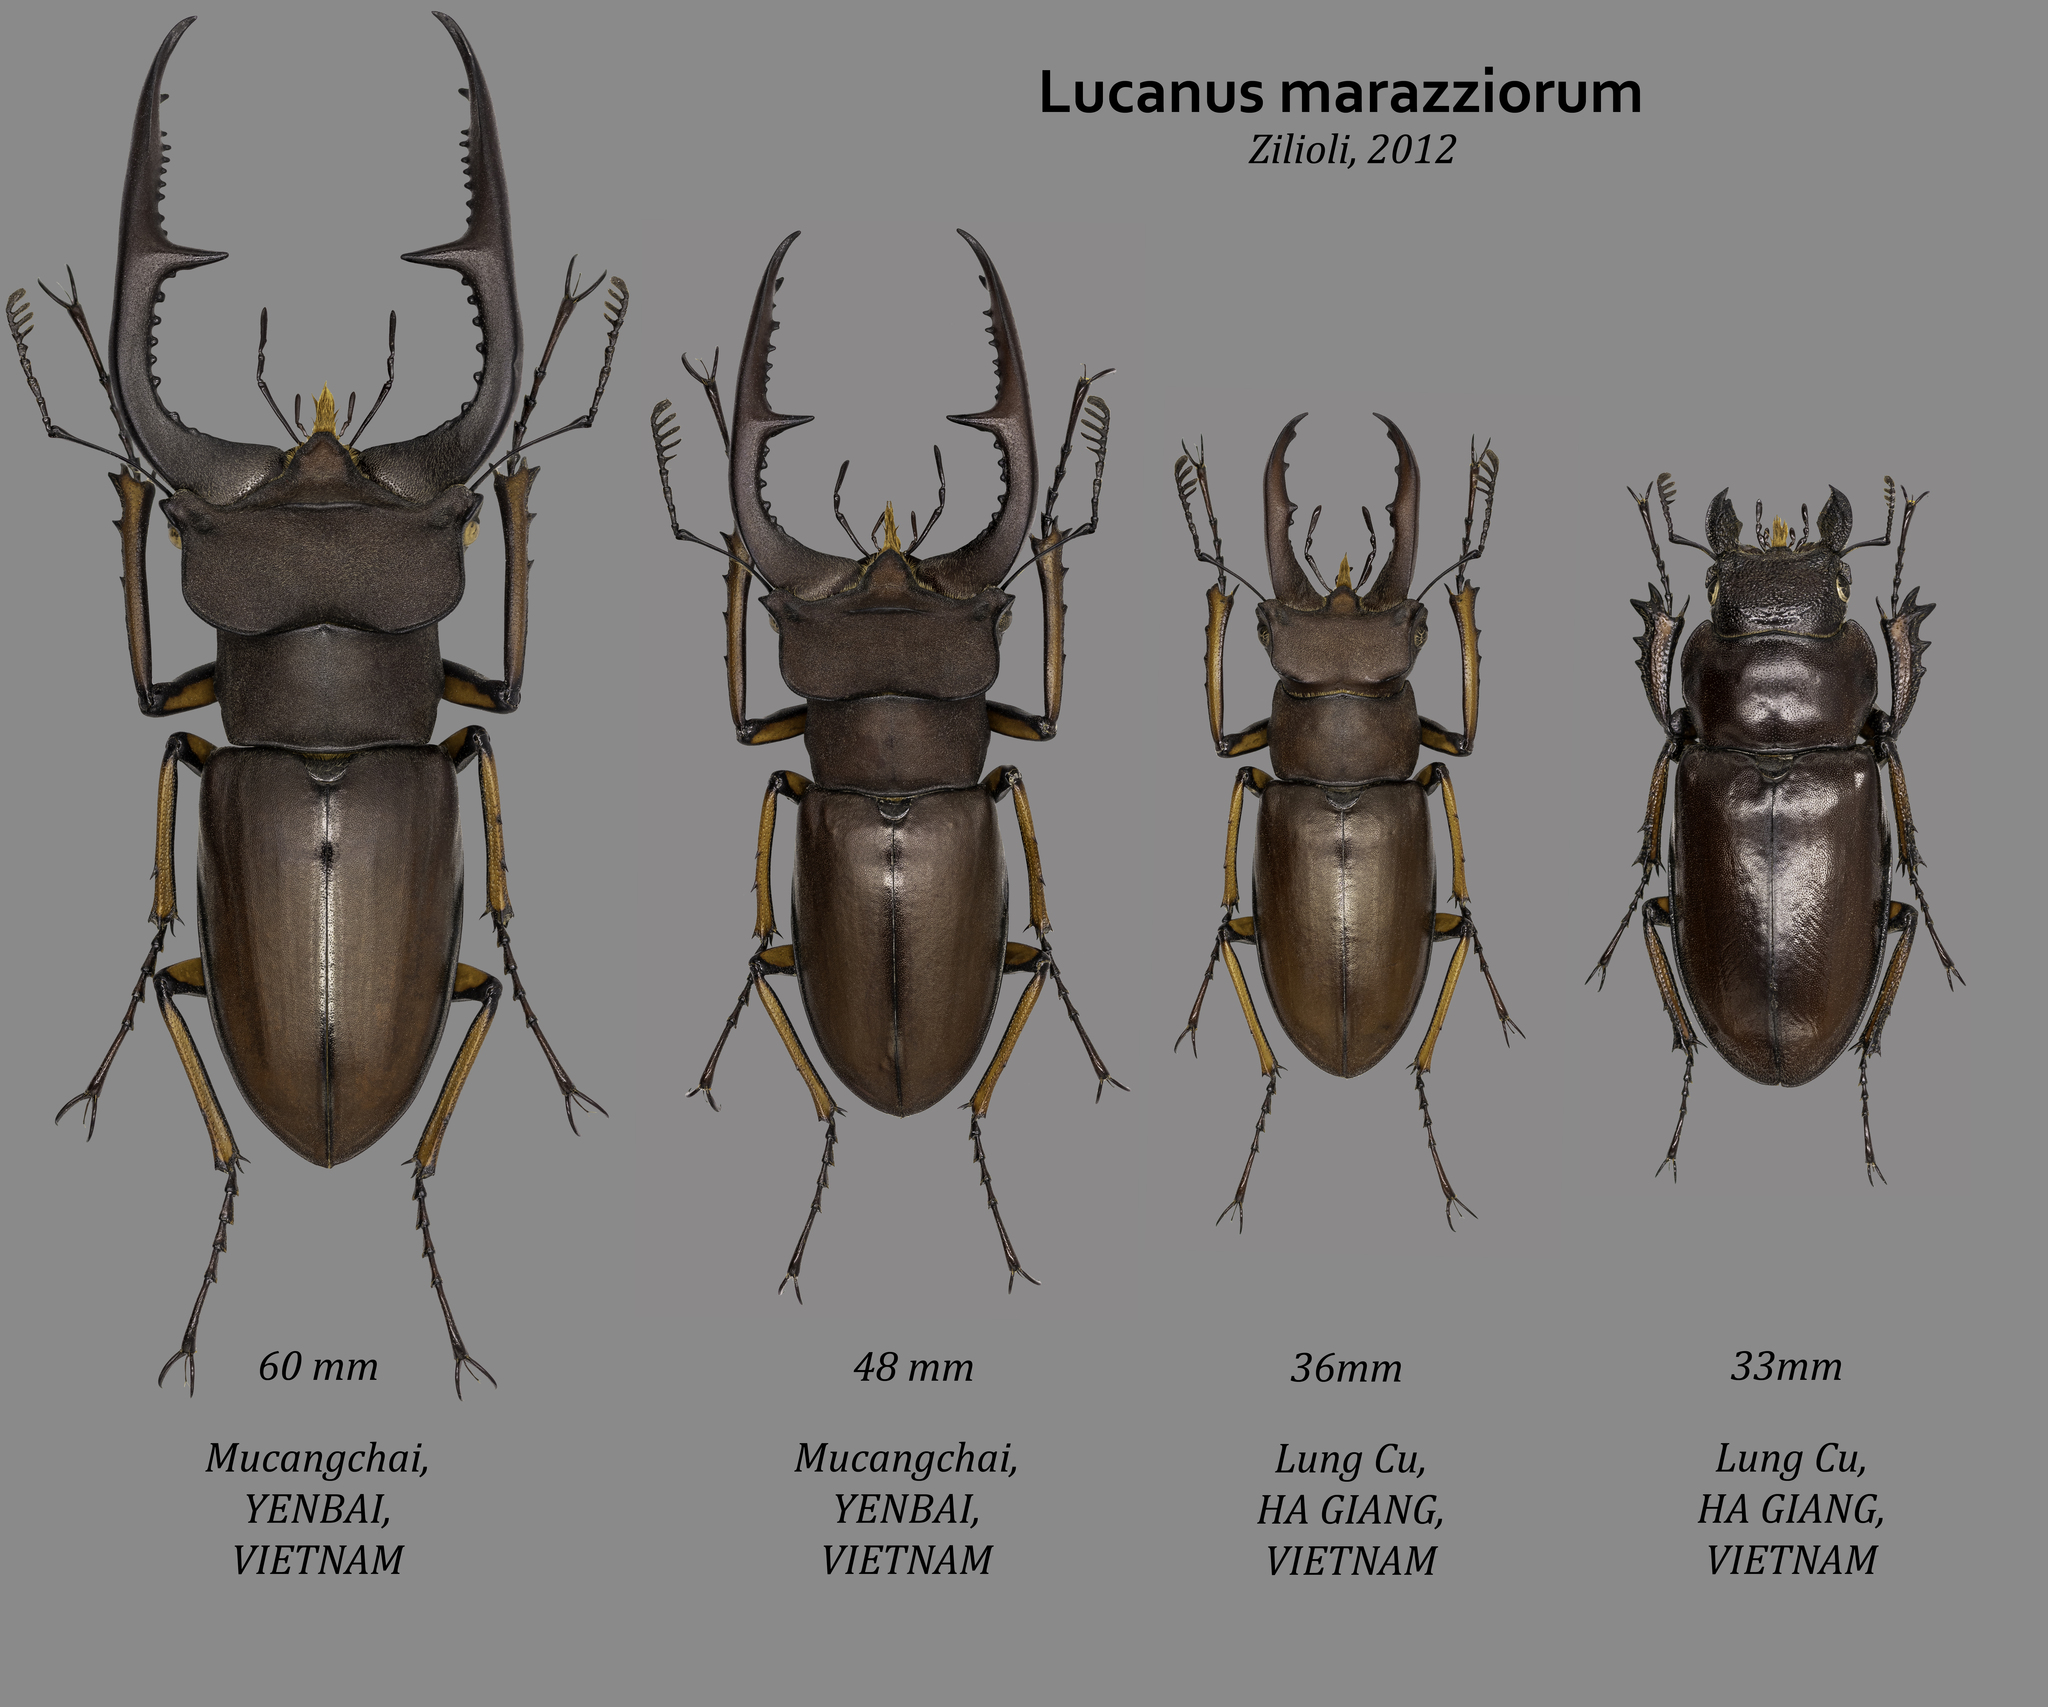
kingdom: Animalia
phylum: Arthropoda
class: Insecta
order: Coleoptera
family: Lucanidae
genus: Lucanus
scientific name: Lucanus marazziorum
